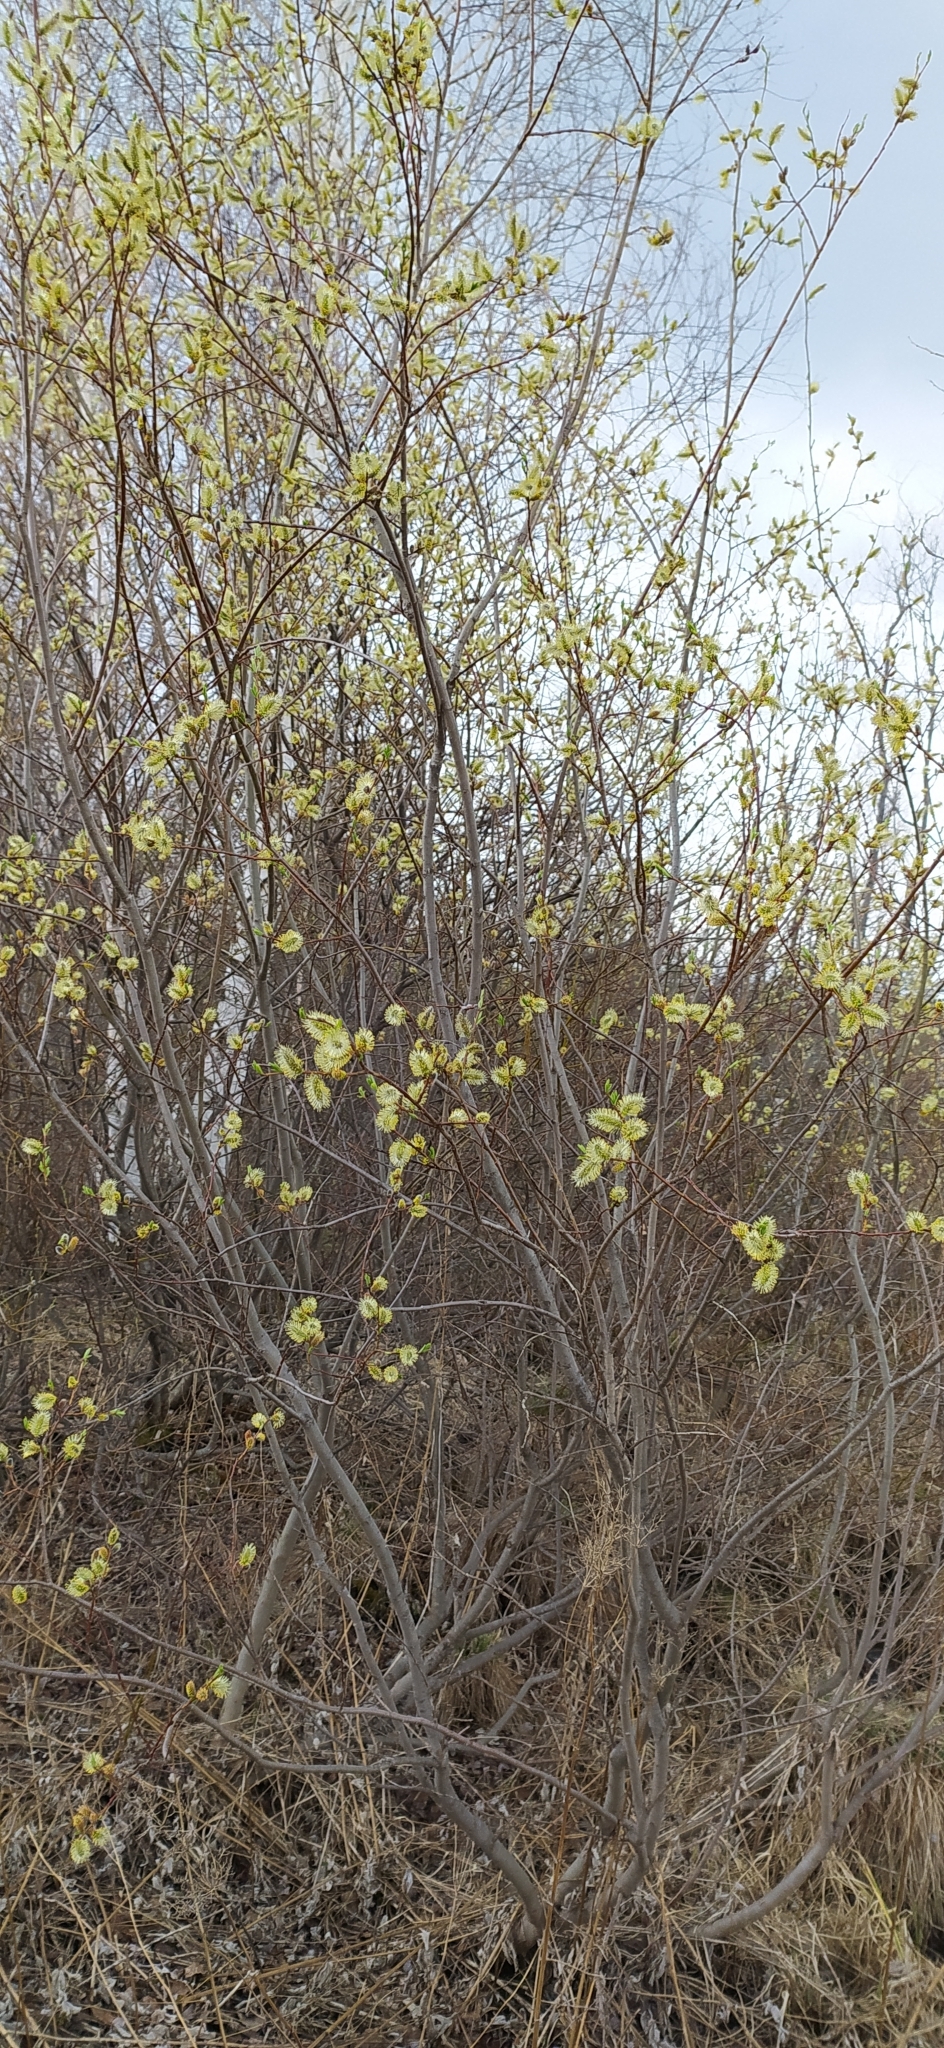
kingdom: Plantae
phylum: Tracheophyta
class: Magnoliopsida
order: Malpighiales
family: Salicaceae
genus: Salix
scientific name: Salix caprea
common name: Goat willow
